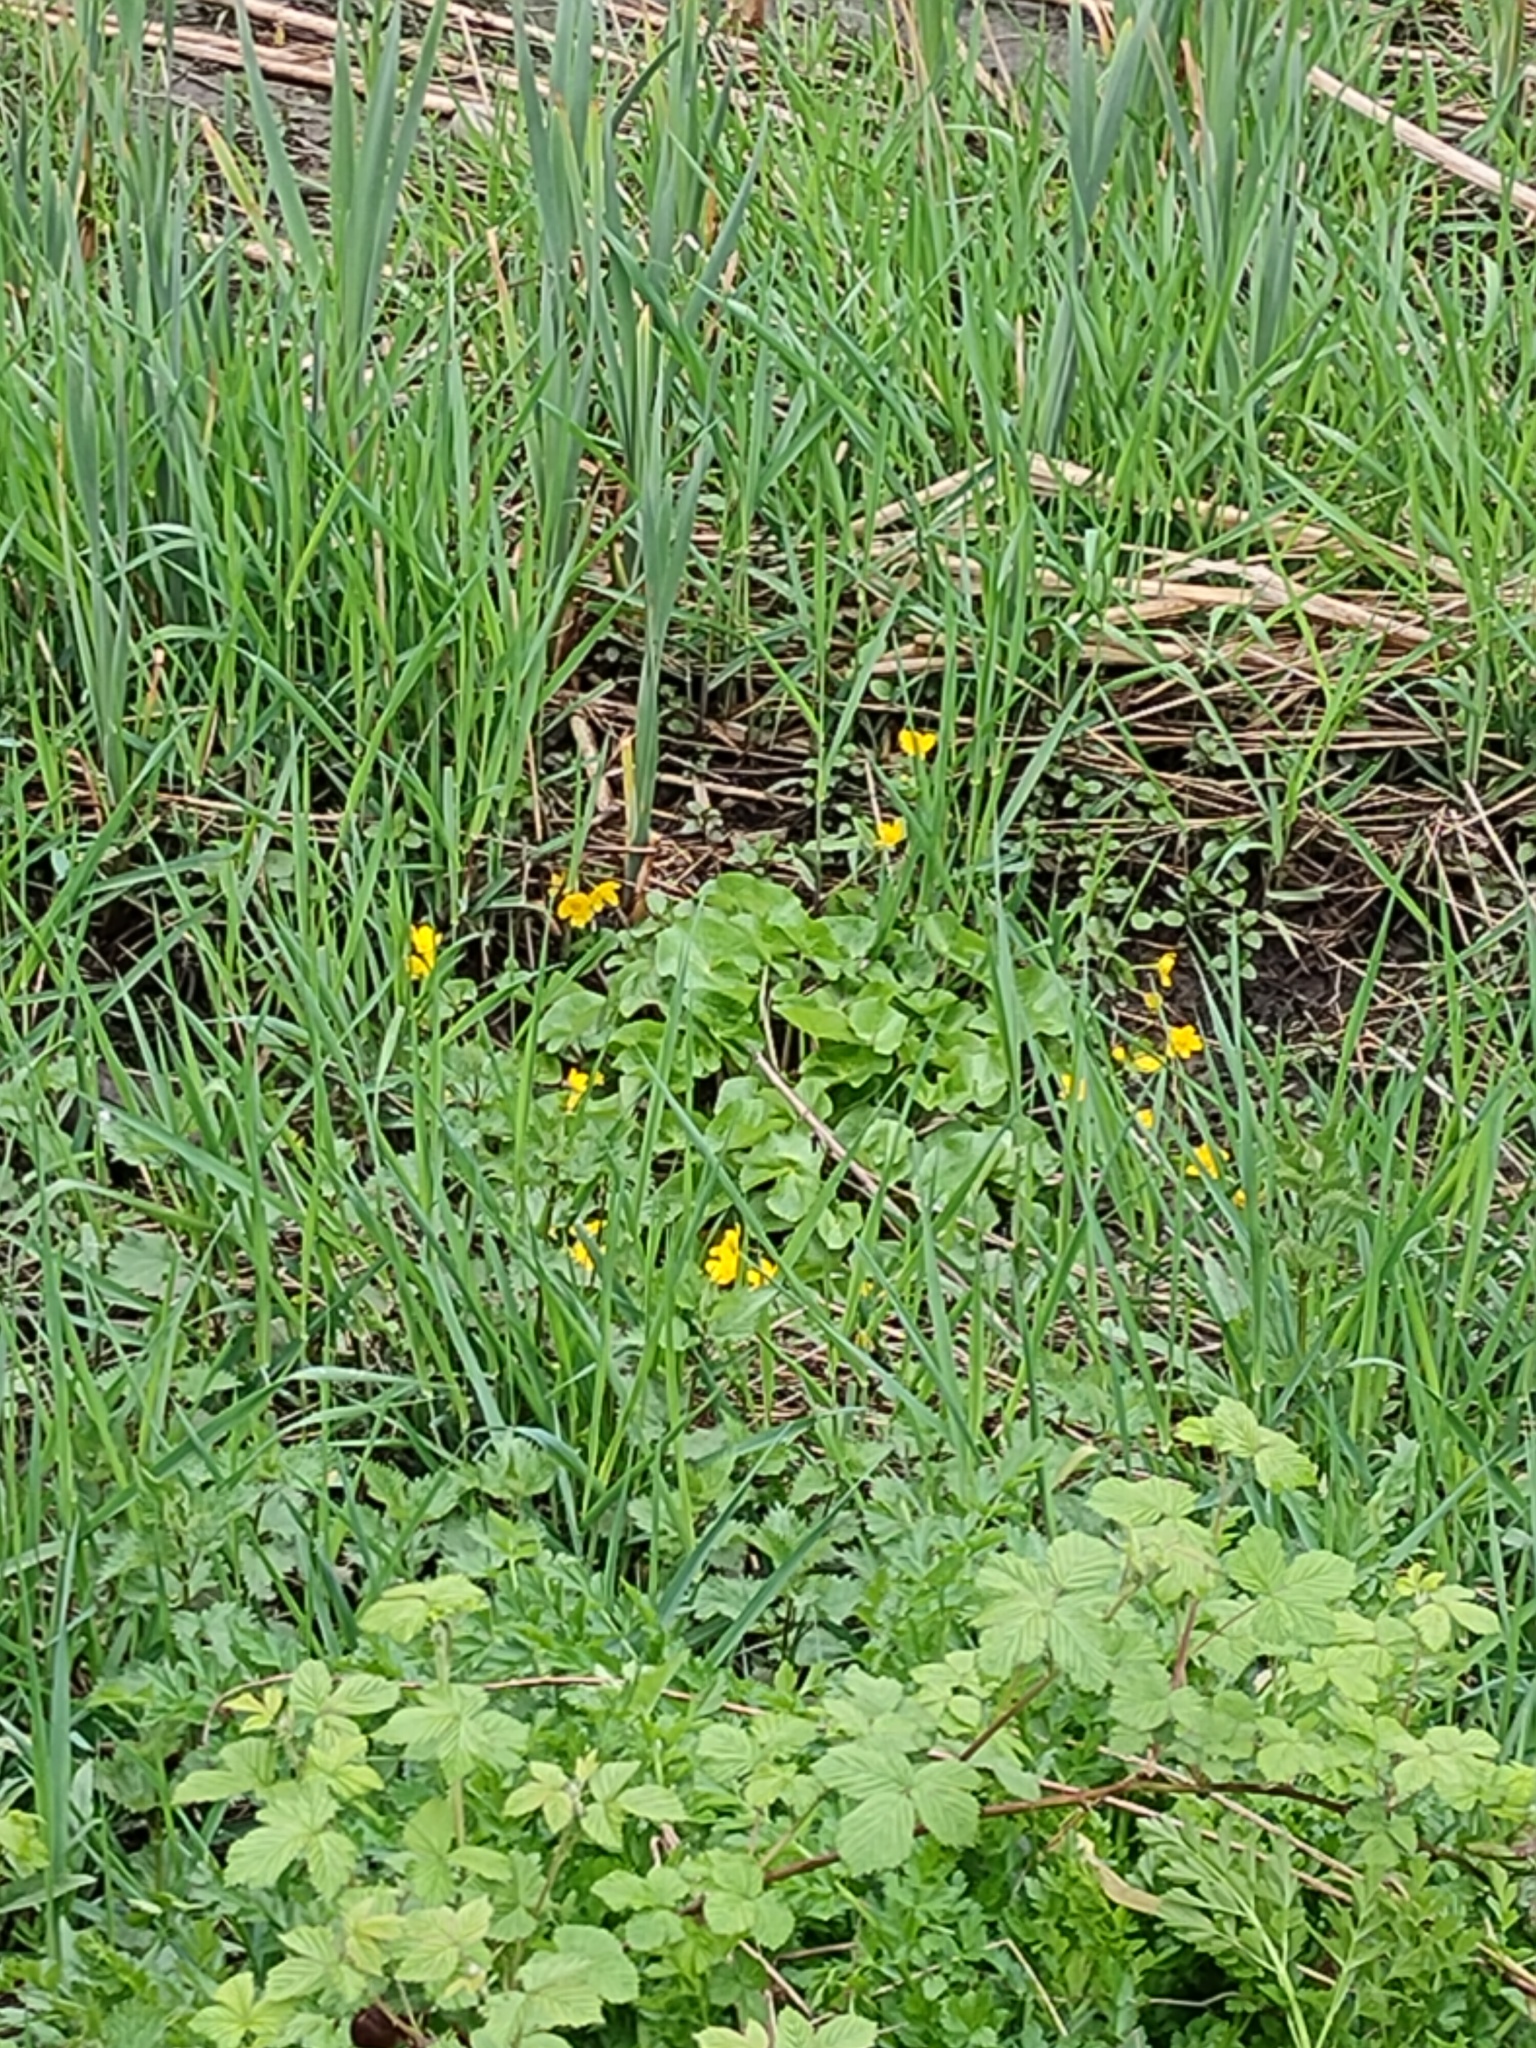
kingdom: Plantae
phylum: Tracheophyta
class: Magnoliopsida
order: Ranunculales
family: Ranunculaceae
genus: Caltha
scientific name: Caltha palustris
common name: Marsh marigold
